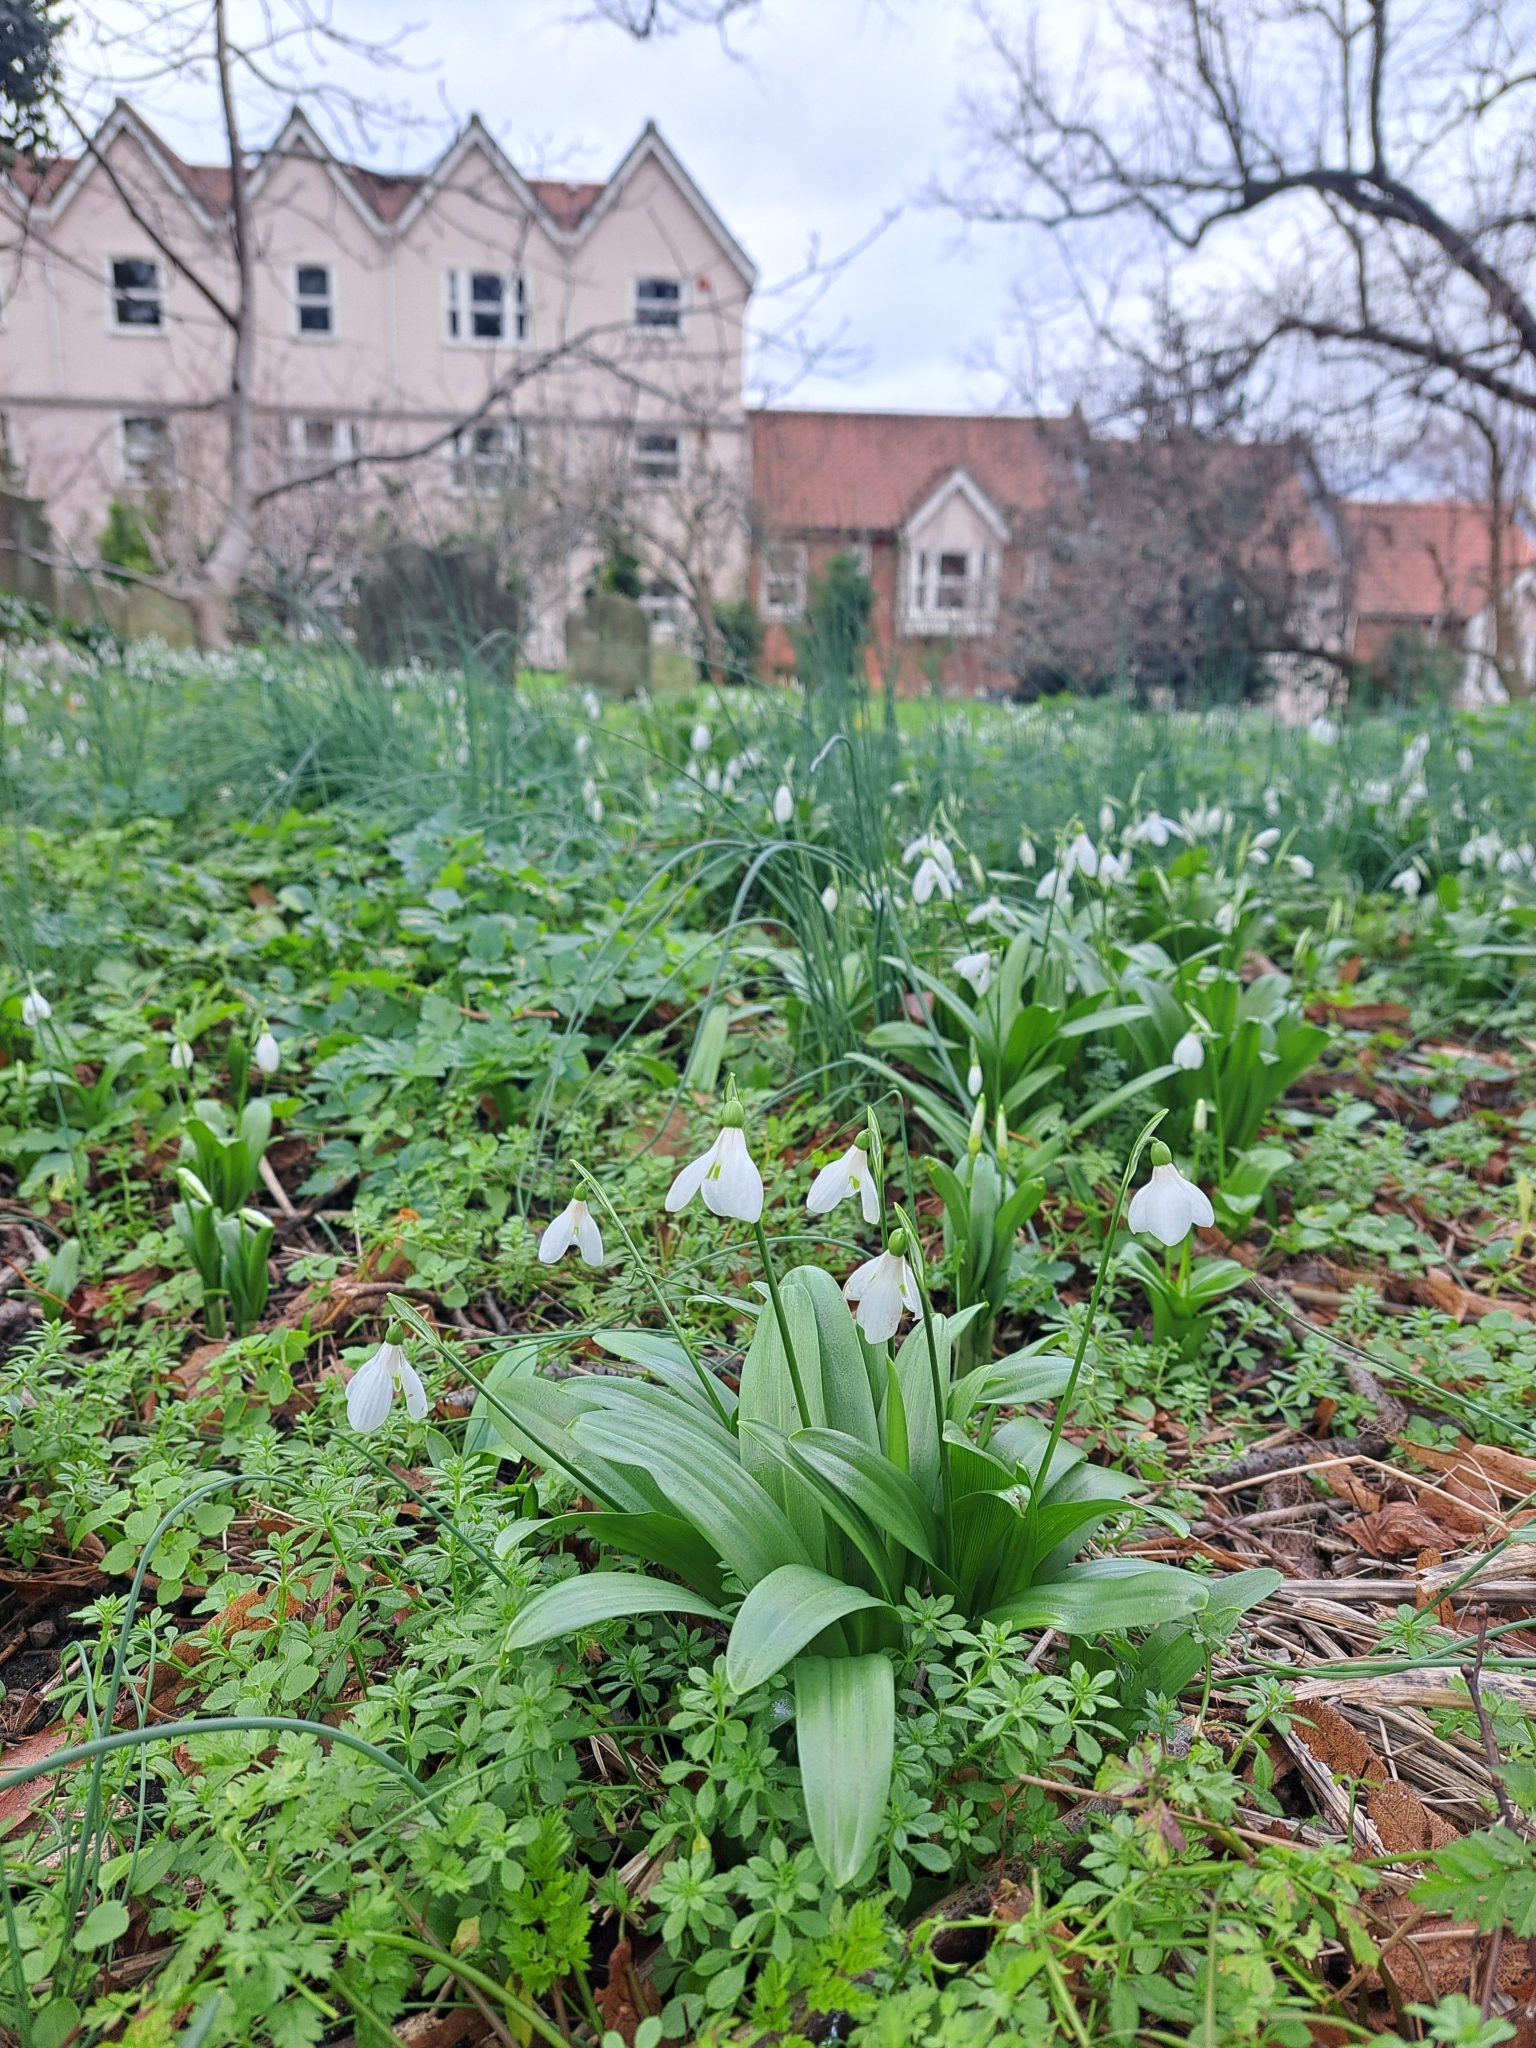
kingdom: Plantae
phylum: Tracheophyta
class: Liliopsida
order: Asparagales
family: Amaryllidaceae
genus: Galanthus
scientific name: Galanthus woronowii
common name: Green snowdrop
